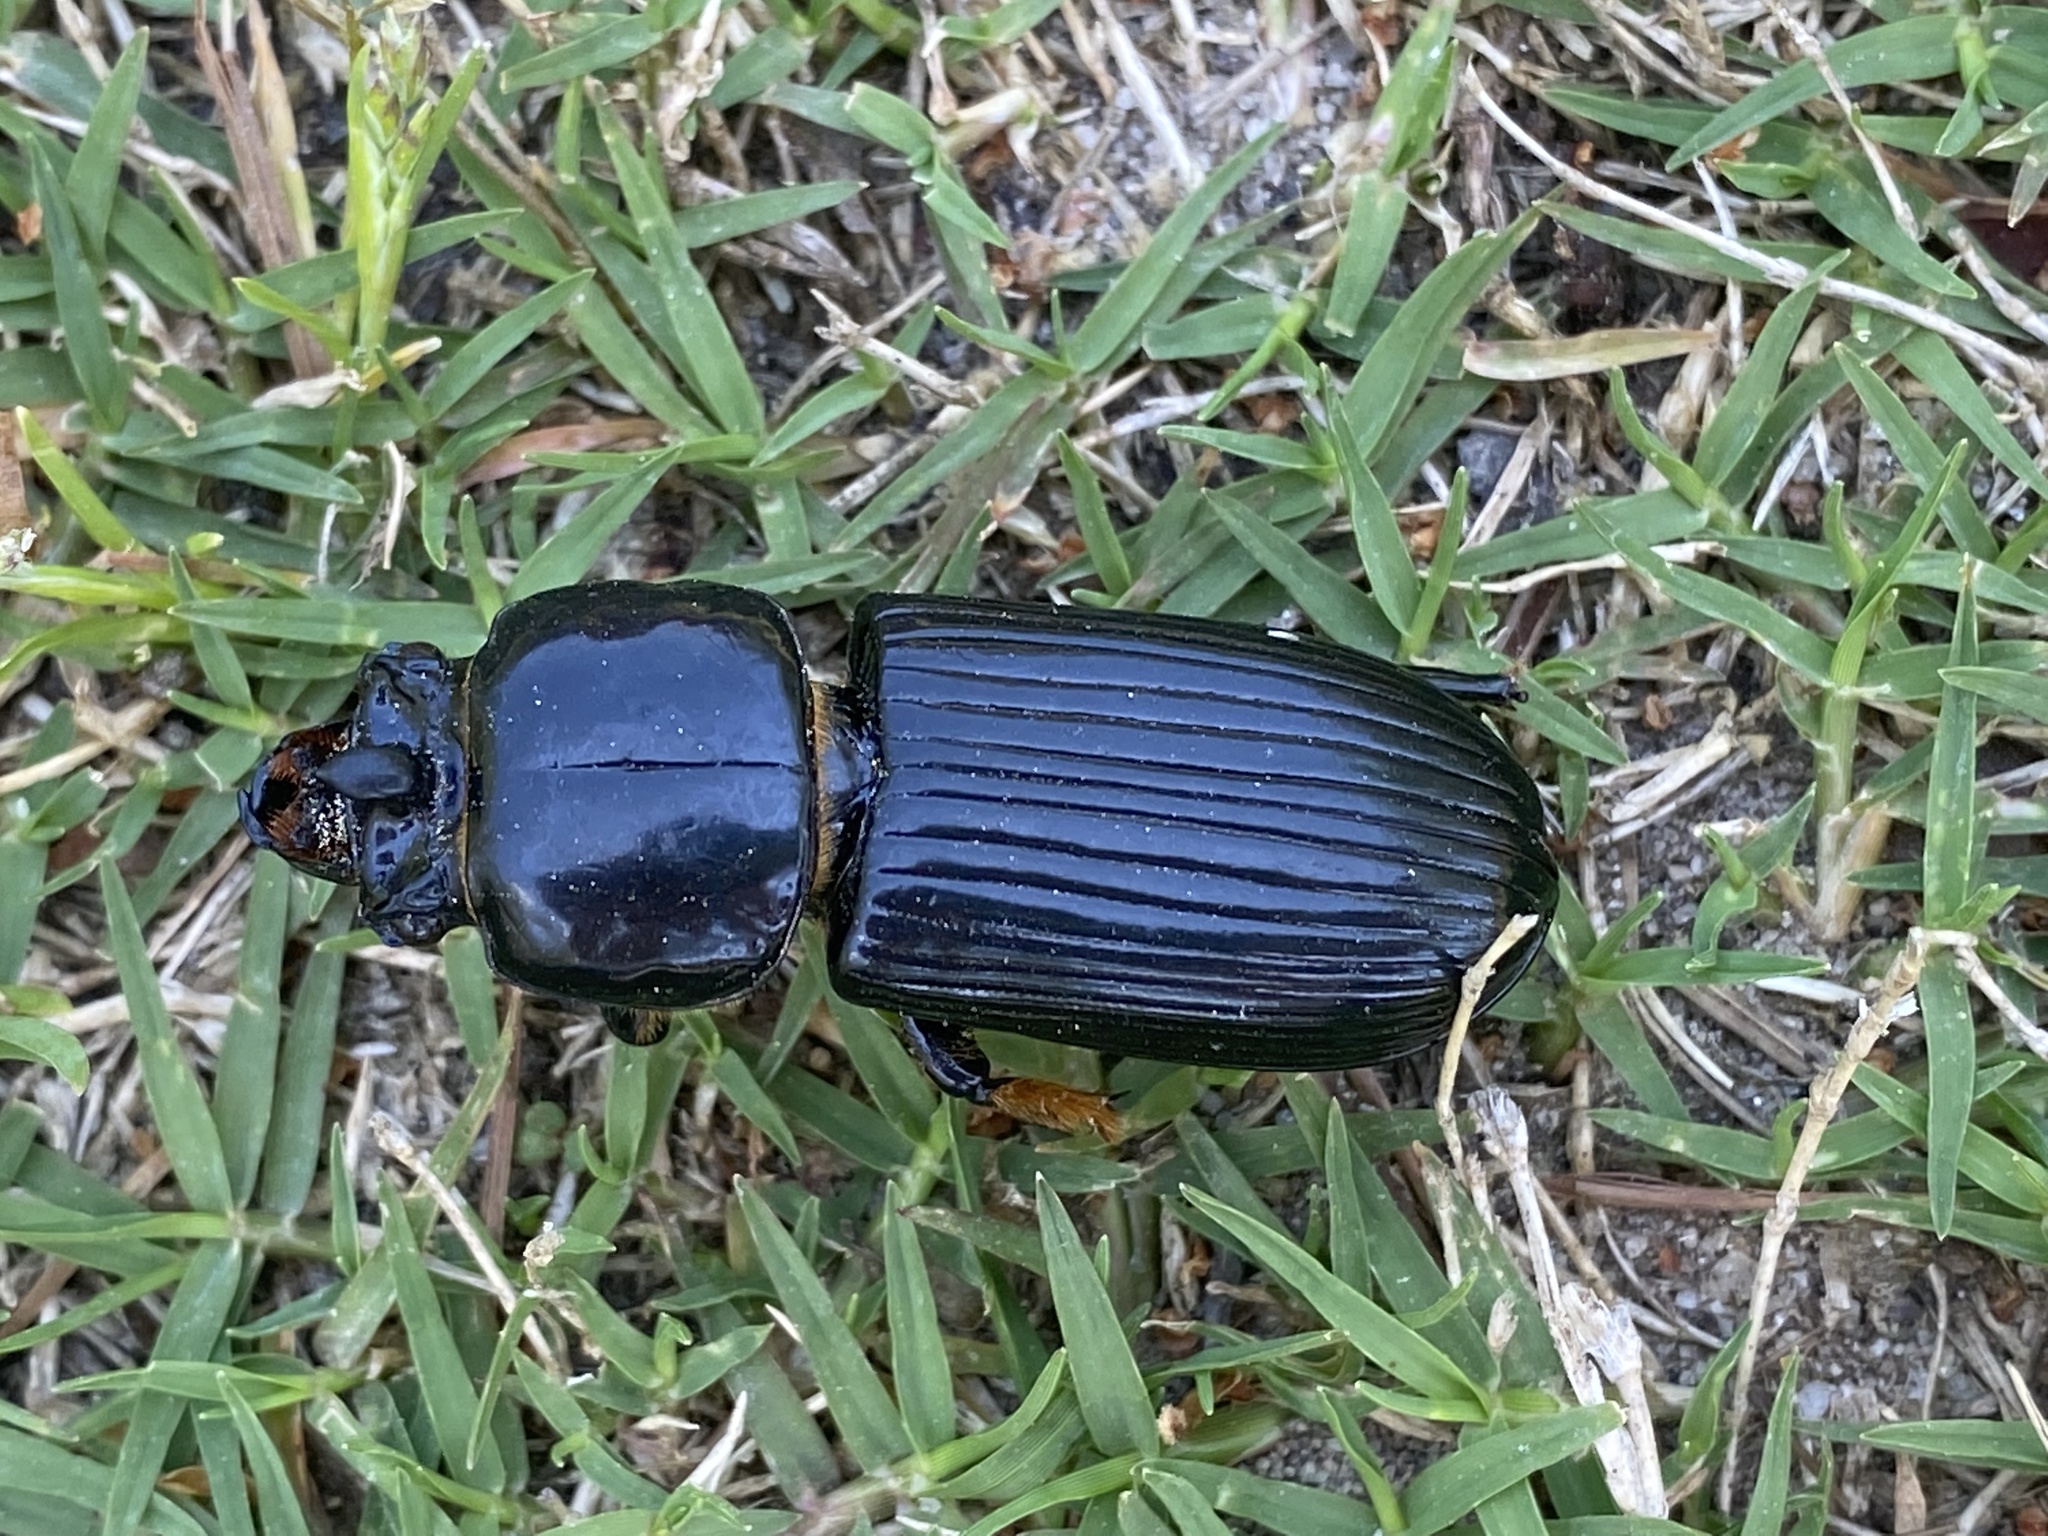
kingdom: Animalia
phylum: Arthropoda
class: Insecta
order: Coleoptera
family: Passalidae
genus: Odontotaenius
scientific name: Odontotaenius disjunctus
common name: Patent leather beetle
